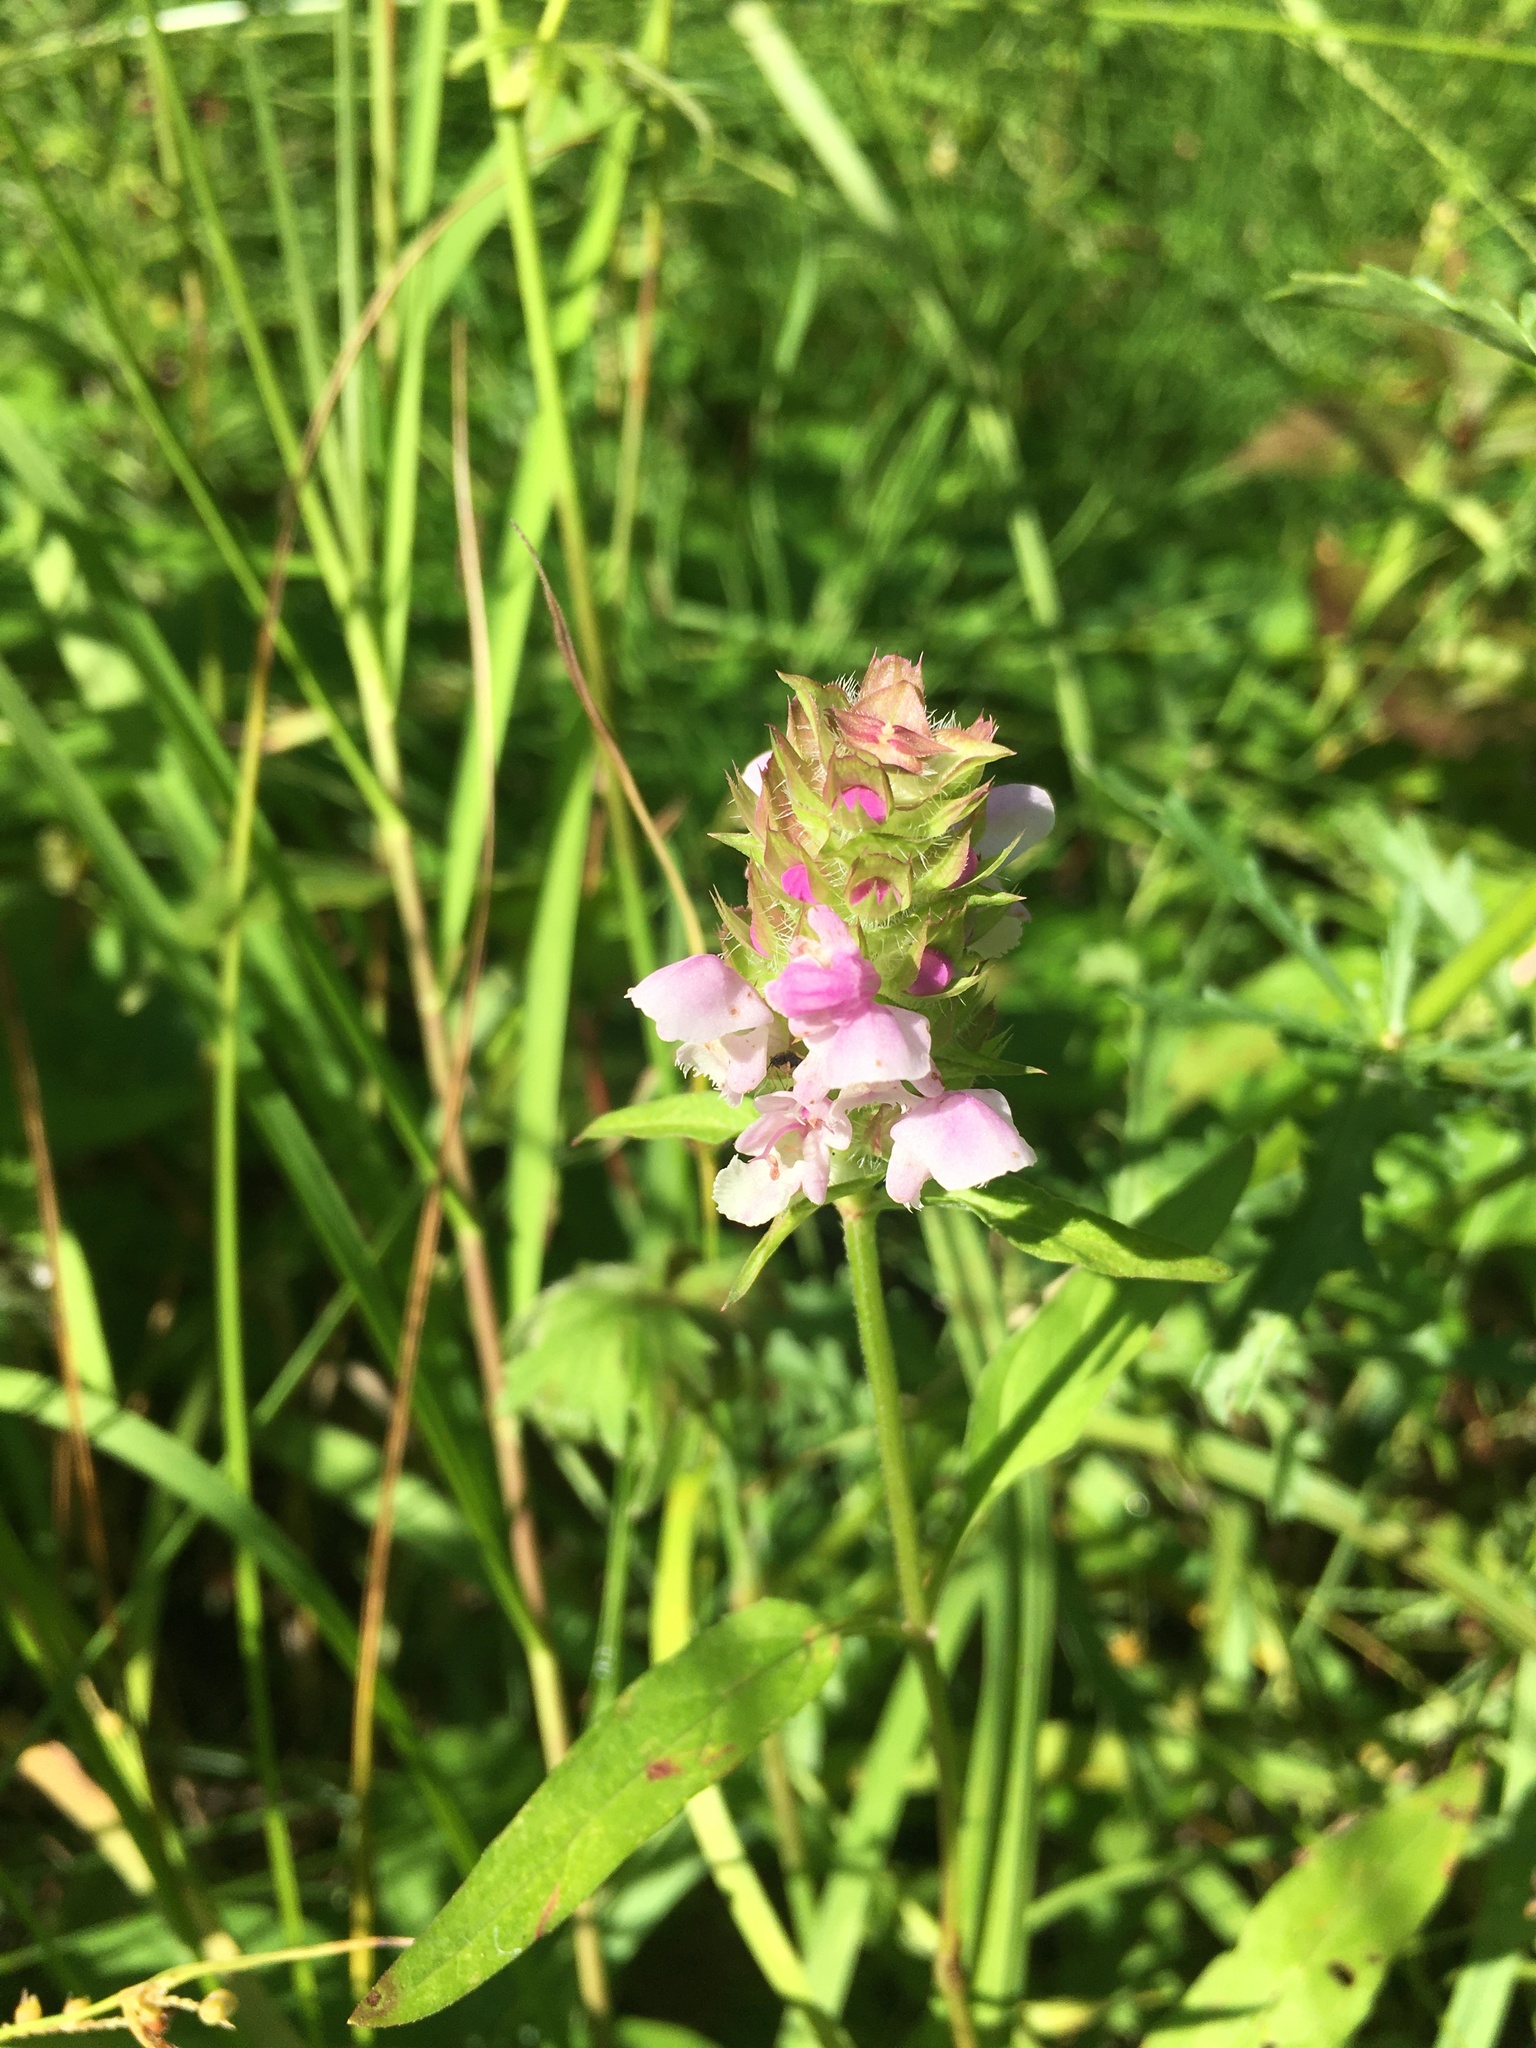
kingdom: Plantae
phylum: Tracheophyta
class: Magnoliopsida
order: Lamiales
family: Lamiaceae
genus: Prunella
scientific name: Prunella vulgaris
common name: Heal-all
